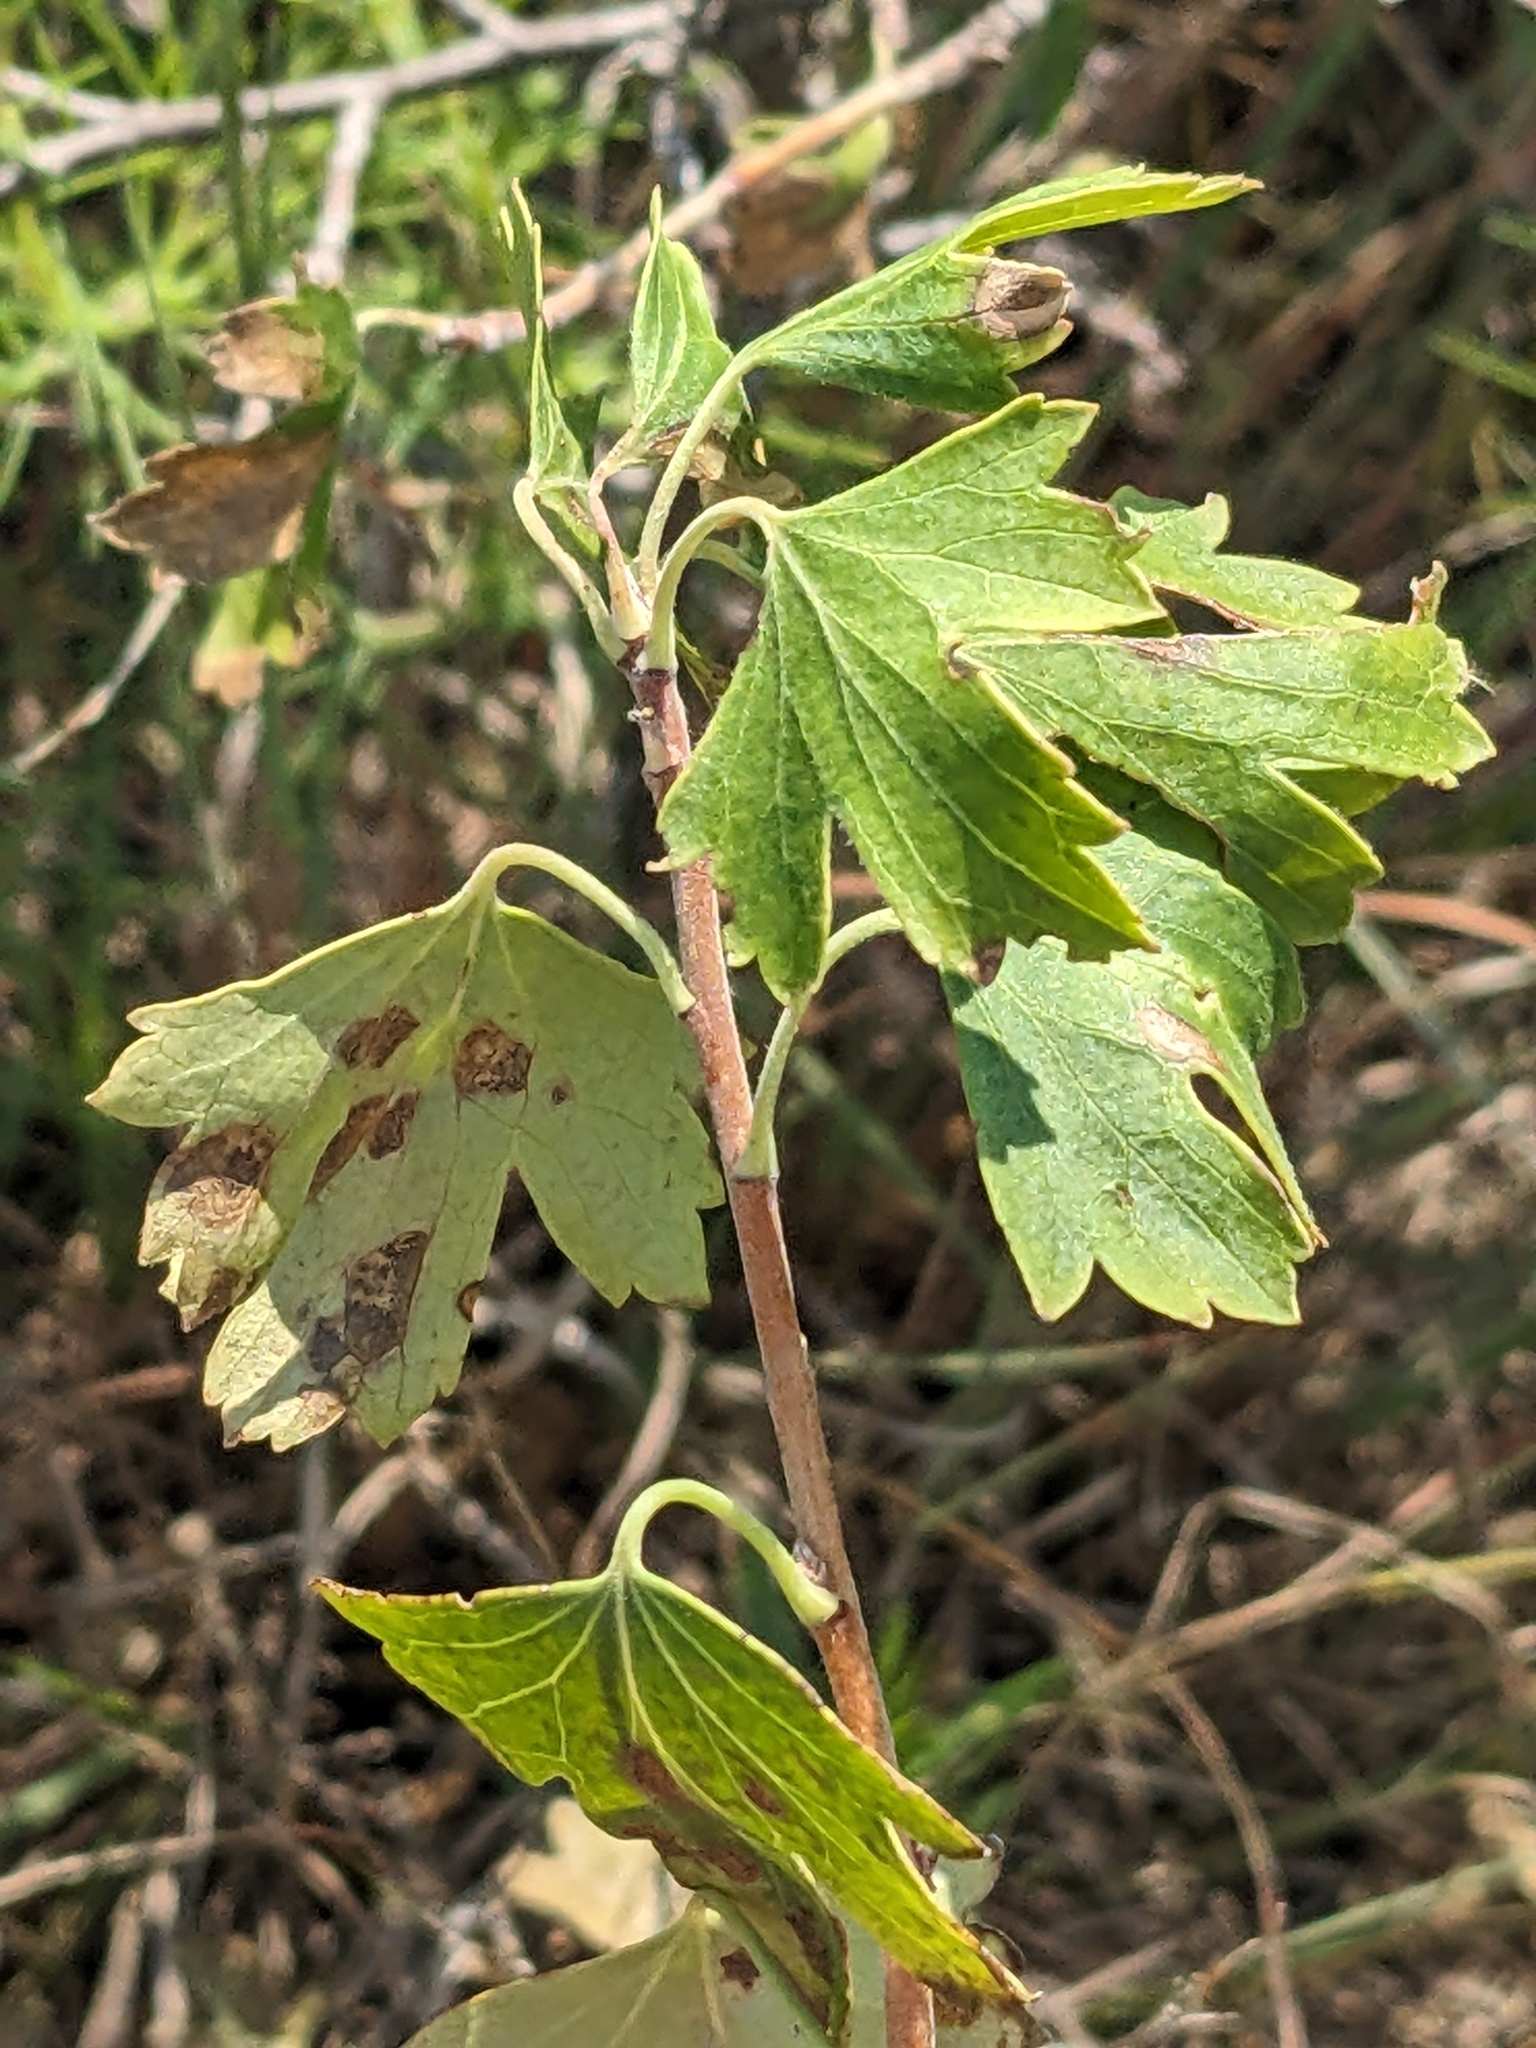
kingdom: Plantae
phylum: Tracheophyta
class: Magnoliopsida
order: Saxifragales
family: Grossulariaceae
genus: Ribes
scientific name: Ribes aureum
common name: Golden currant
